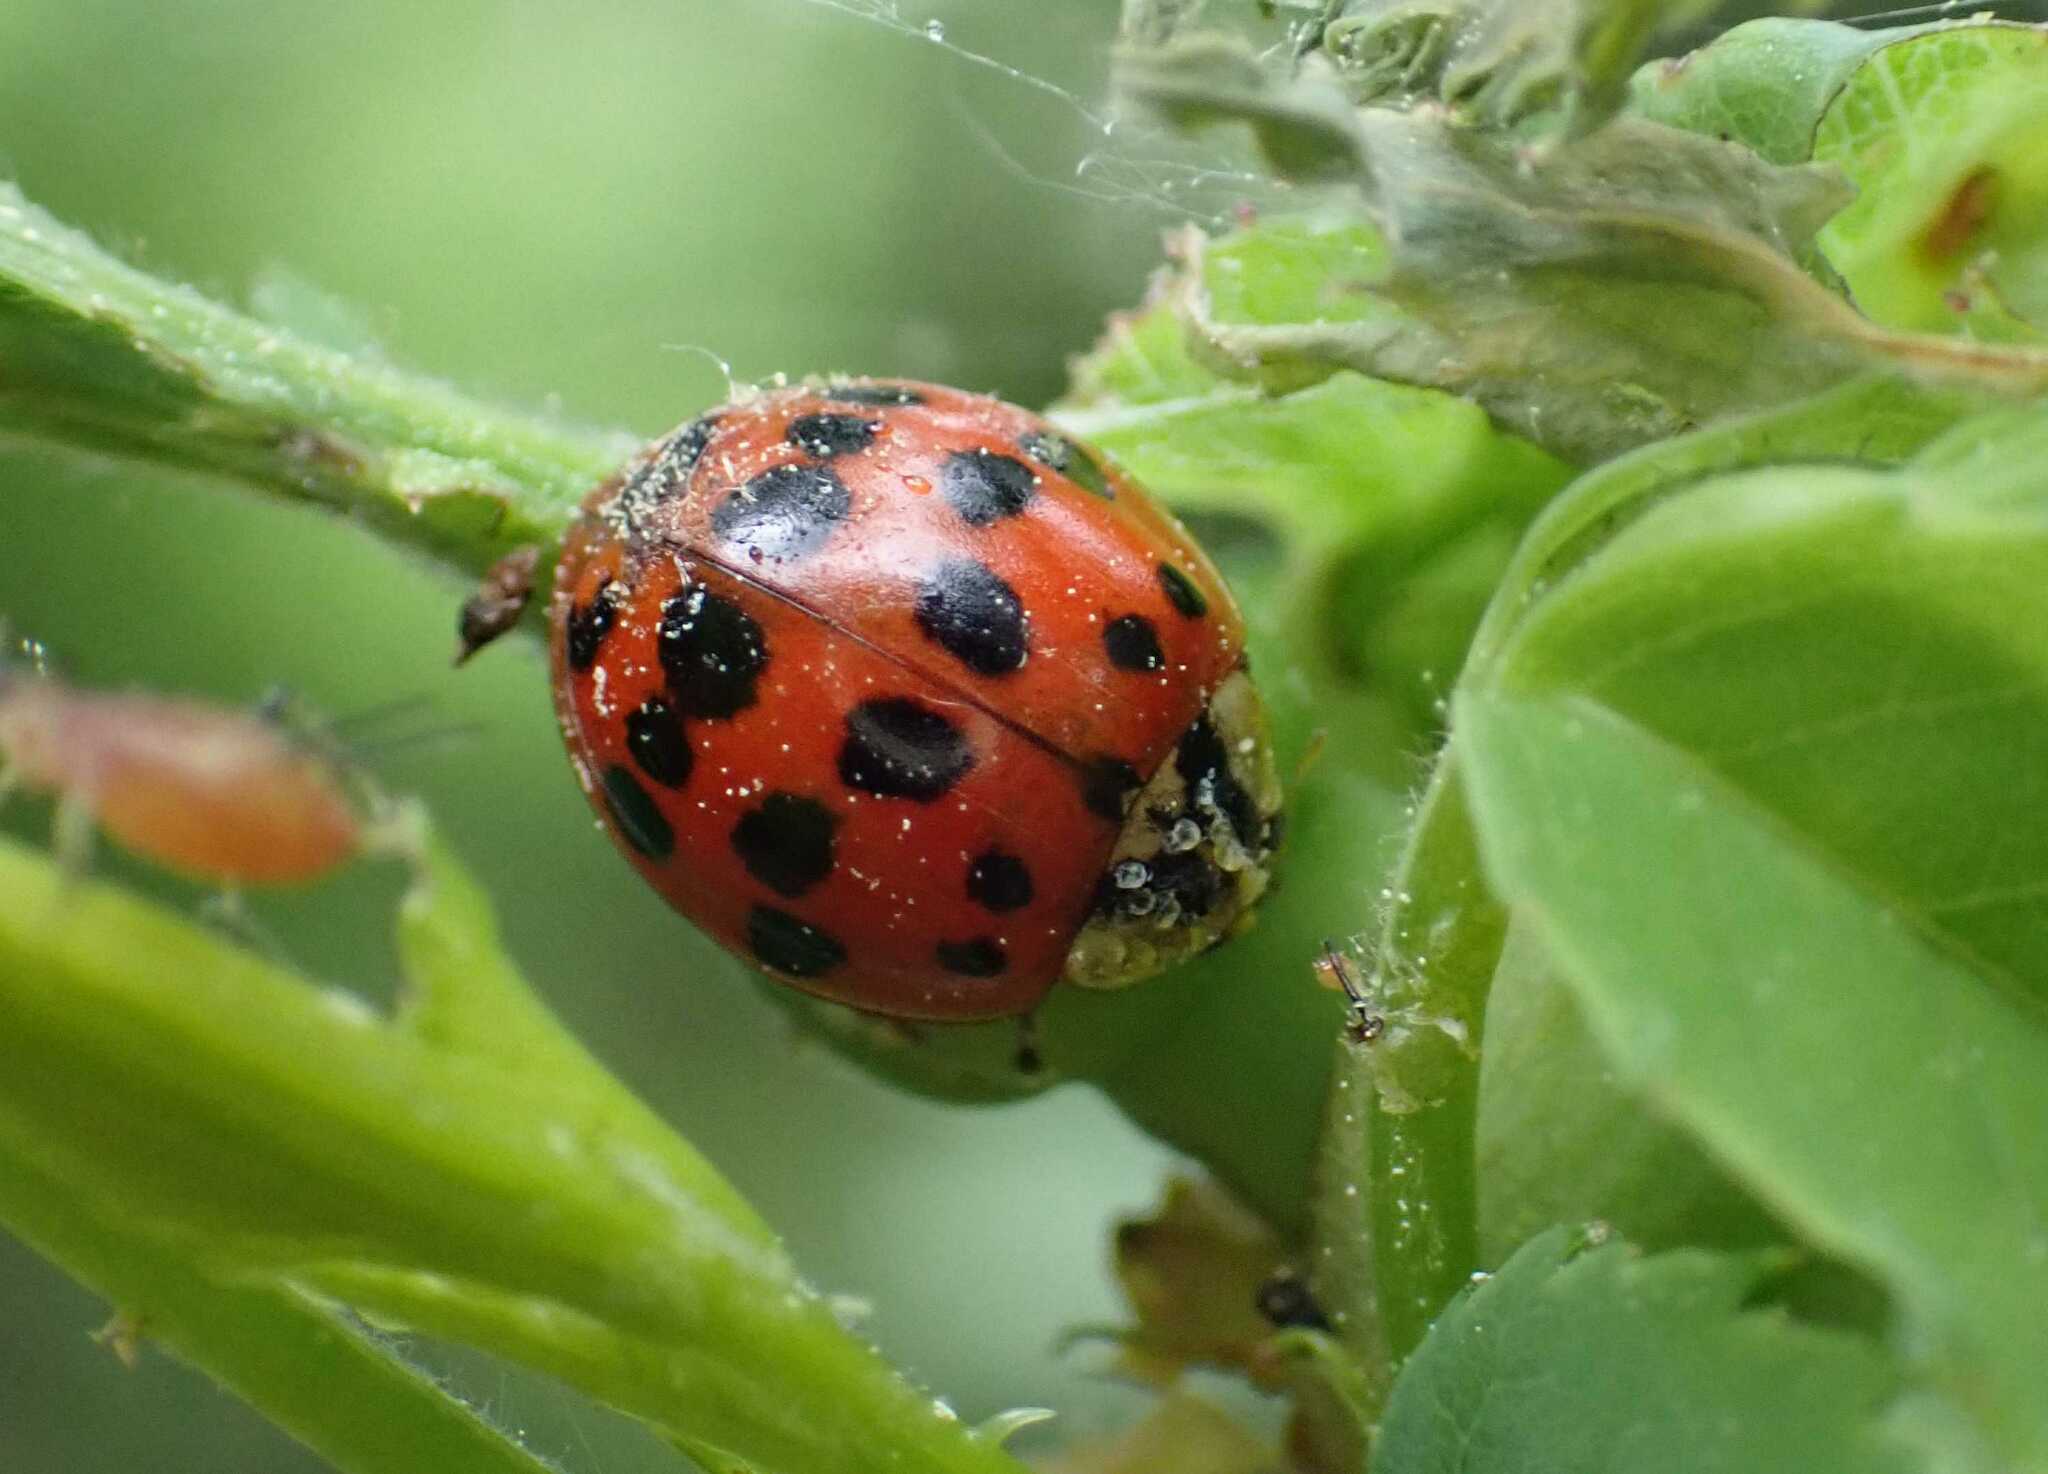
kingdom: Animalia
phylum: Arthropoda
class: Insecta
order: Coleoptera
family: Coccinellidae
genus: Harmonia
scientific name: Harmonia axyridis
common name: Harlequin ladybird
